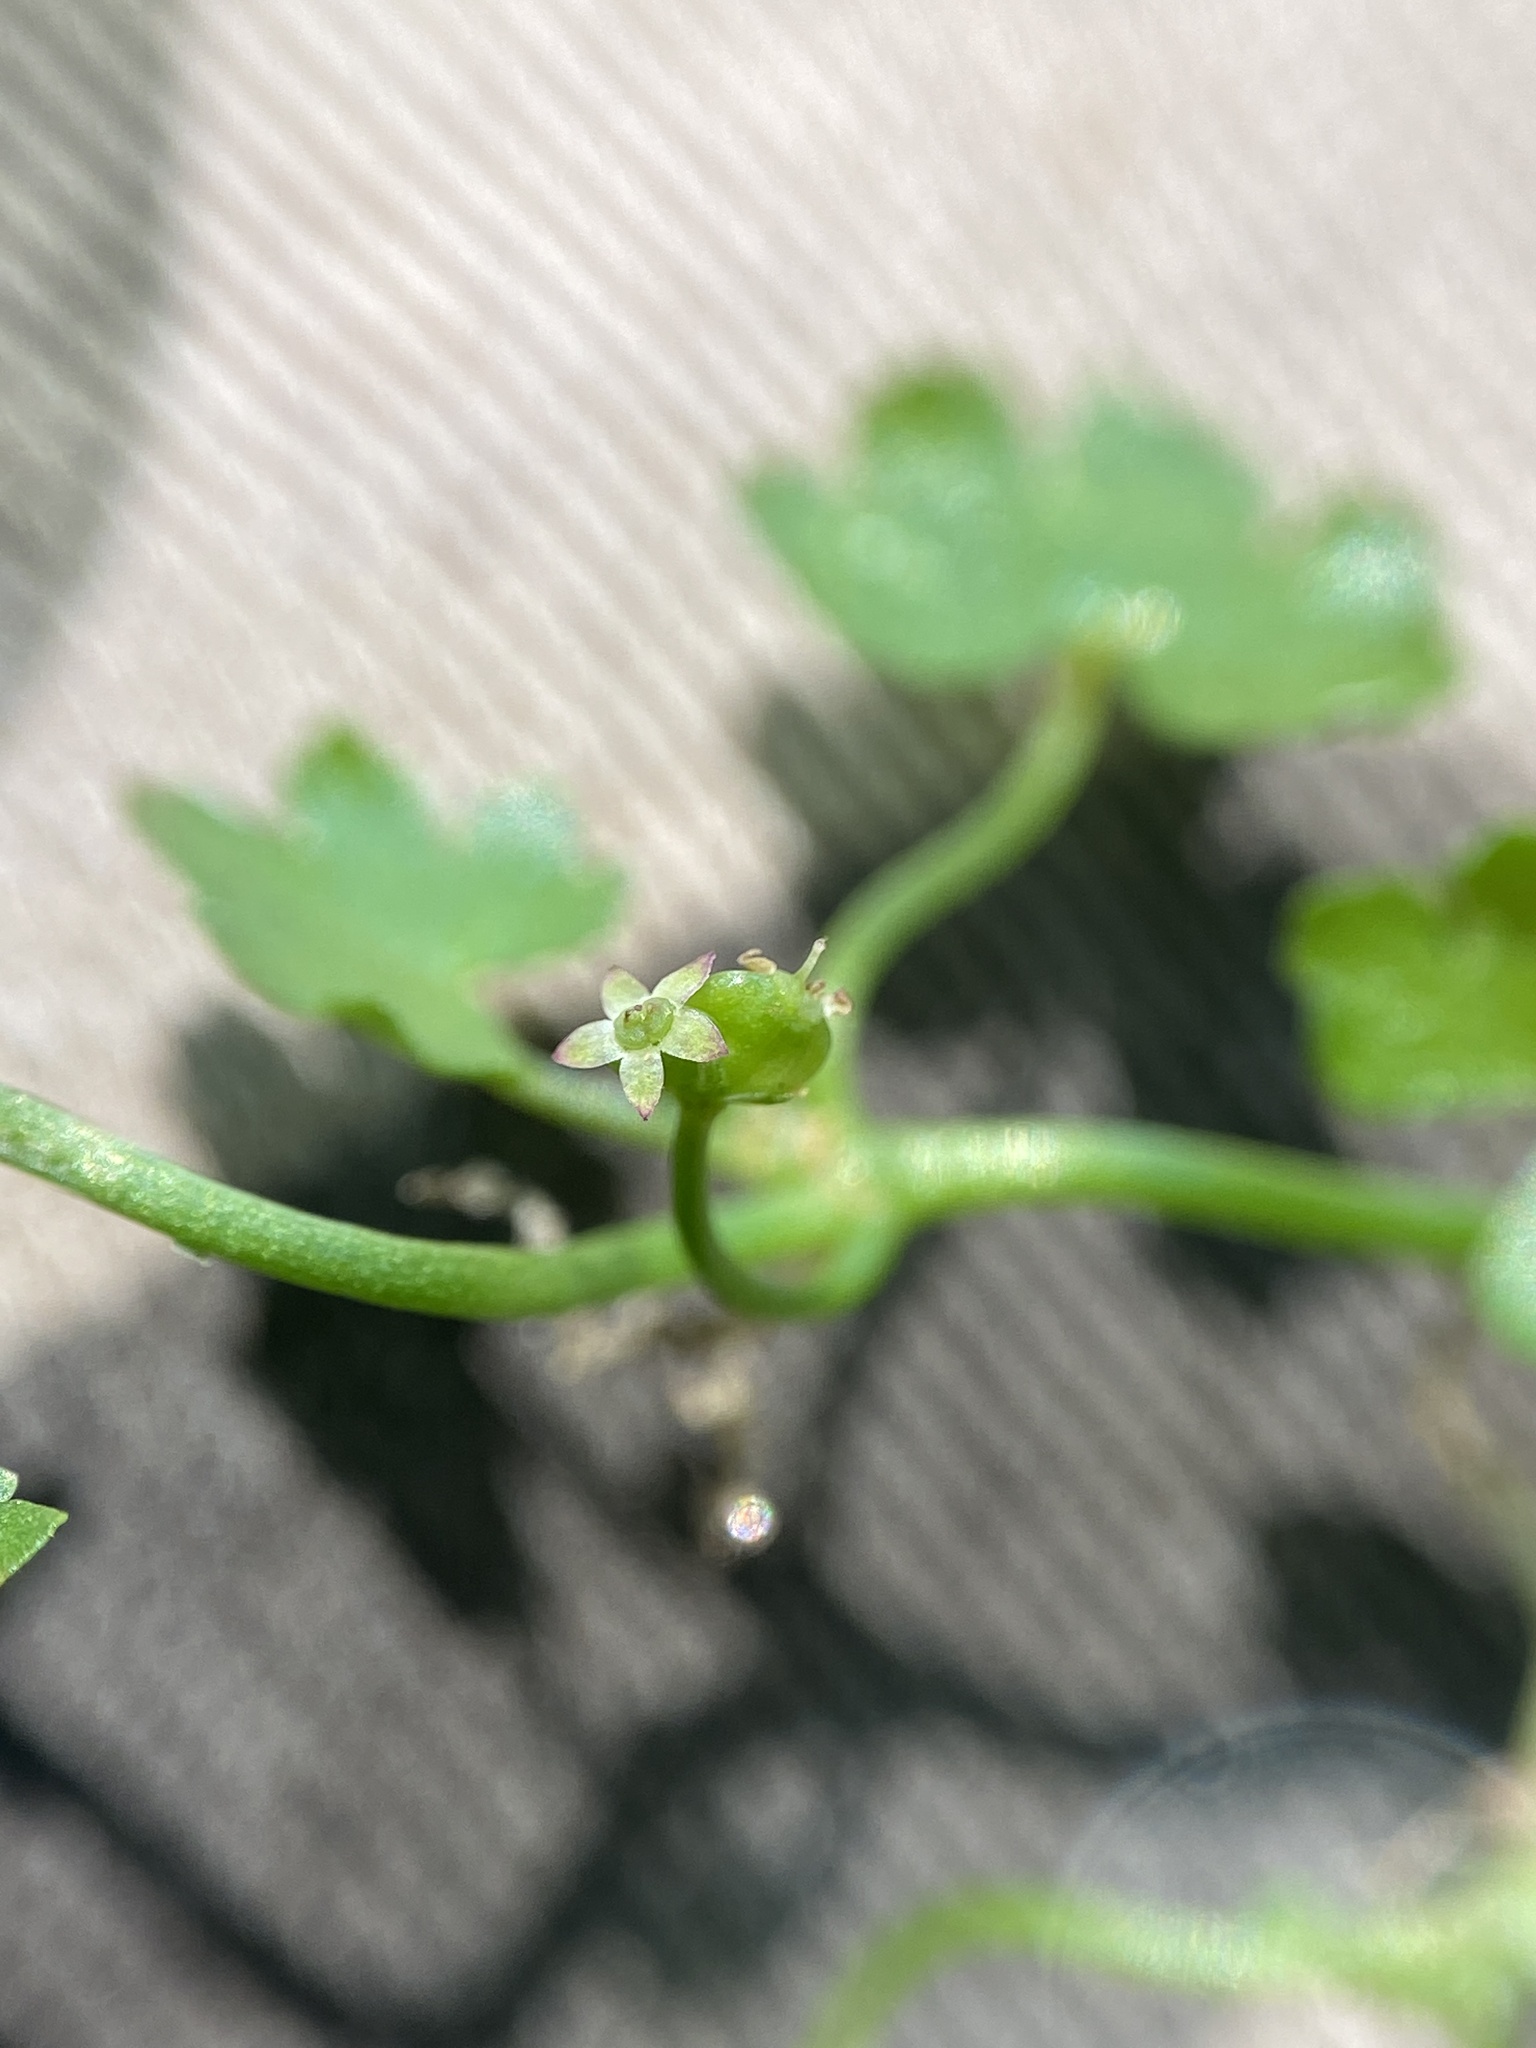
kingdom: Plantae
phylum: Tracheophyta
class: Magnoliopsida
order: Apiales
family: Araliaceae
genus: Hydrocotyle
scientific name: Hydrocotyle batrachium
